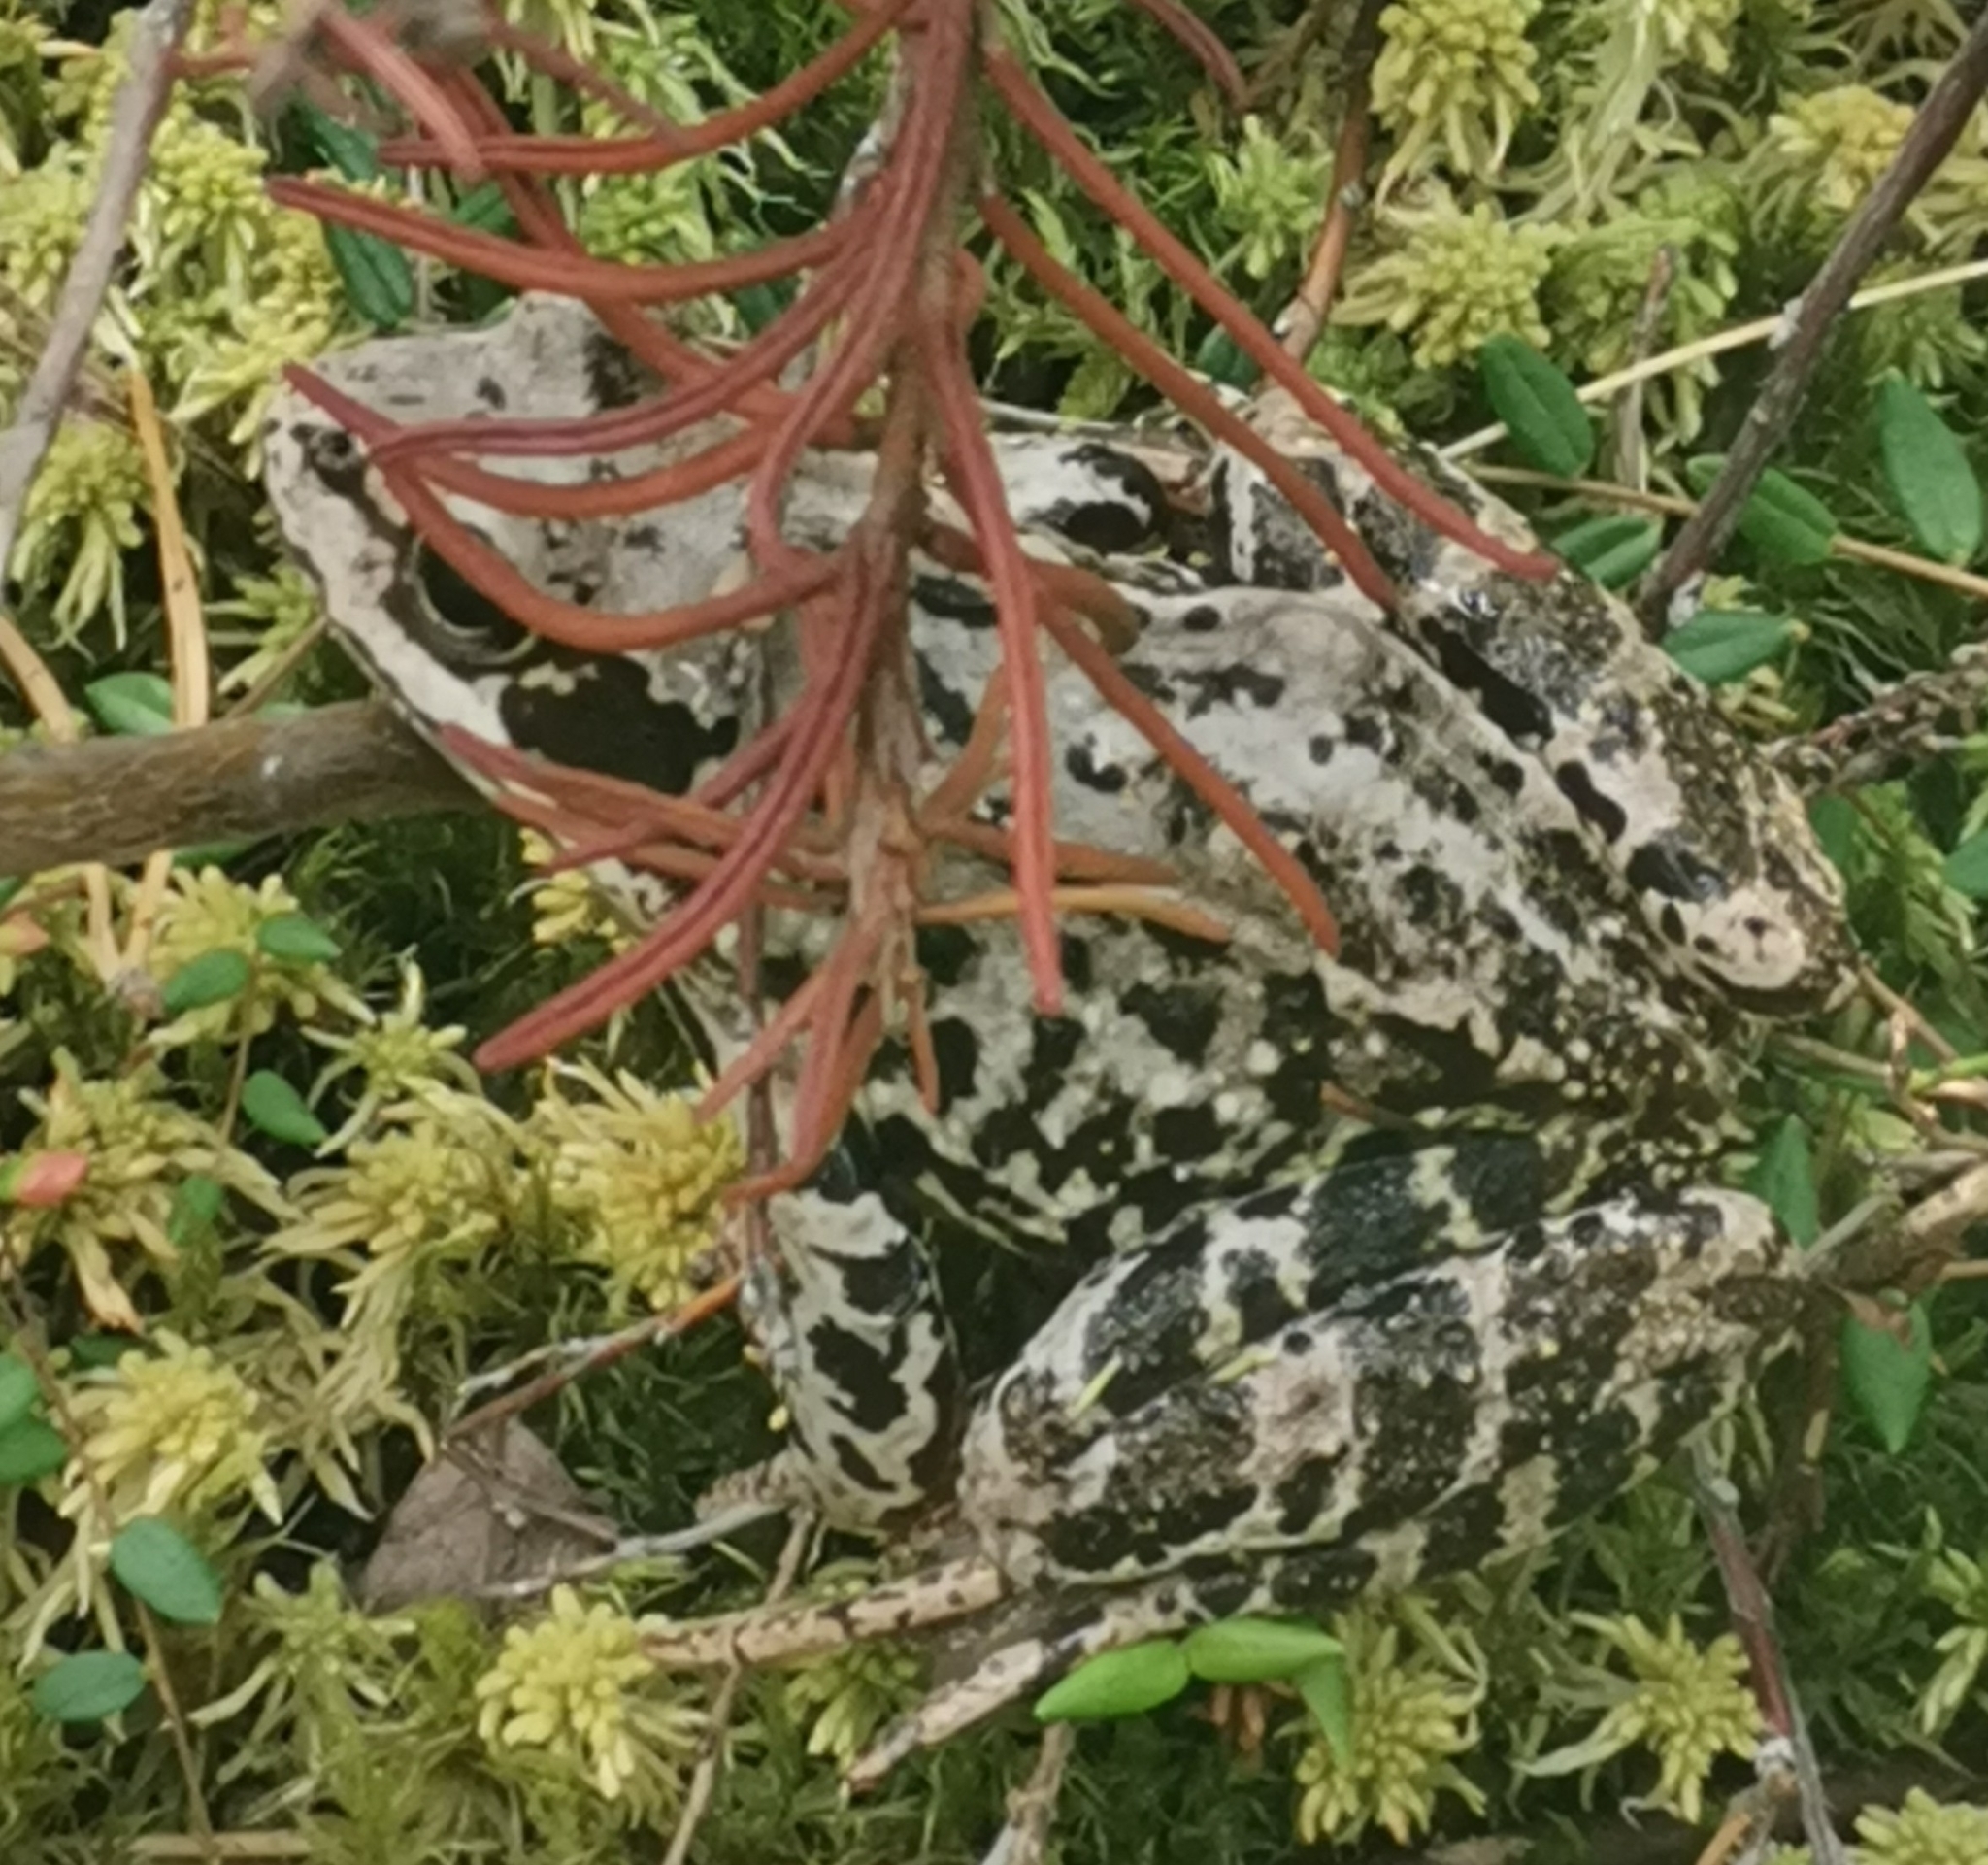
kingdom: Animalia
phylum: Chordata
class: Amphibia
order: Anura
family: Ranidae
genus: Rana
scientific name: Rana temporaria
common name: Common frog
